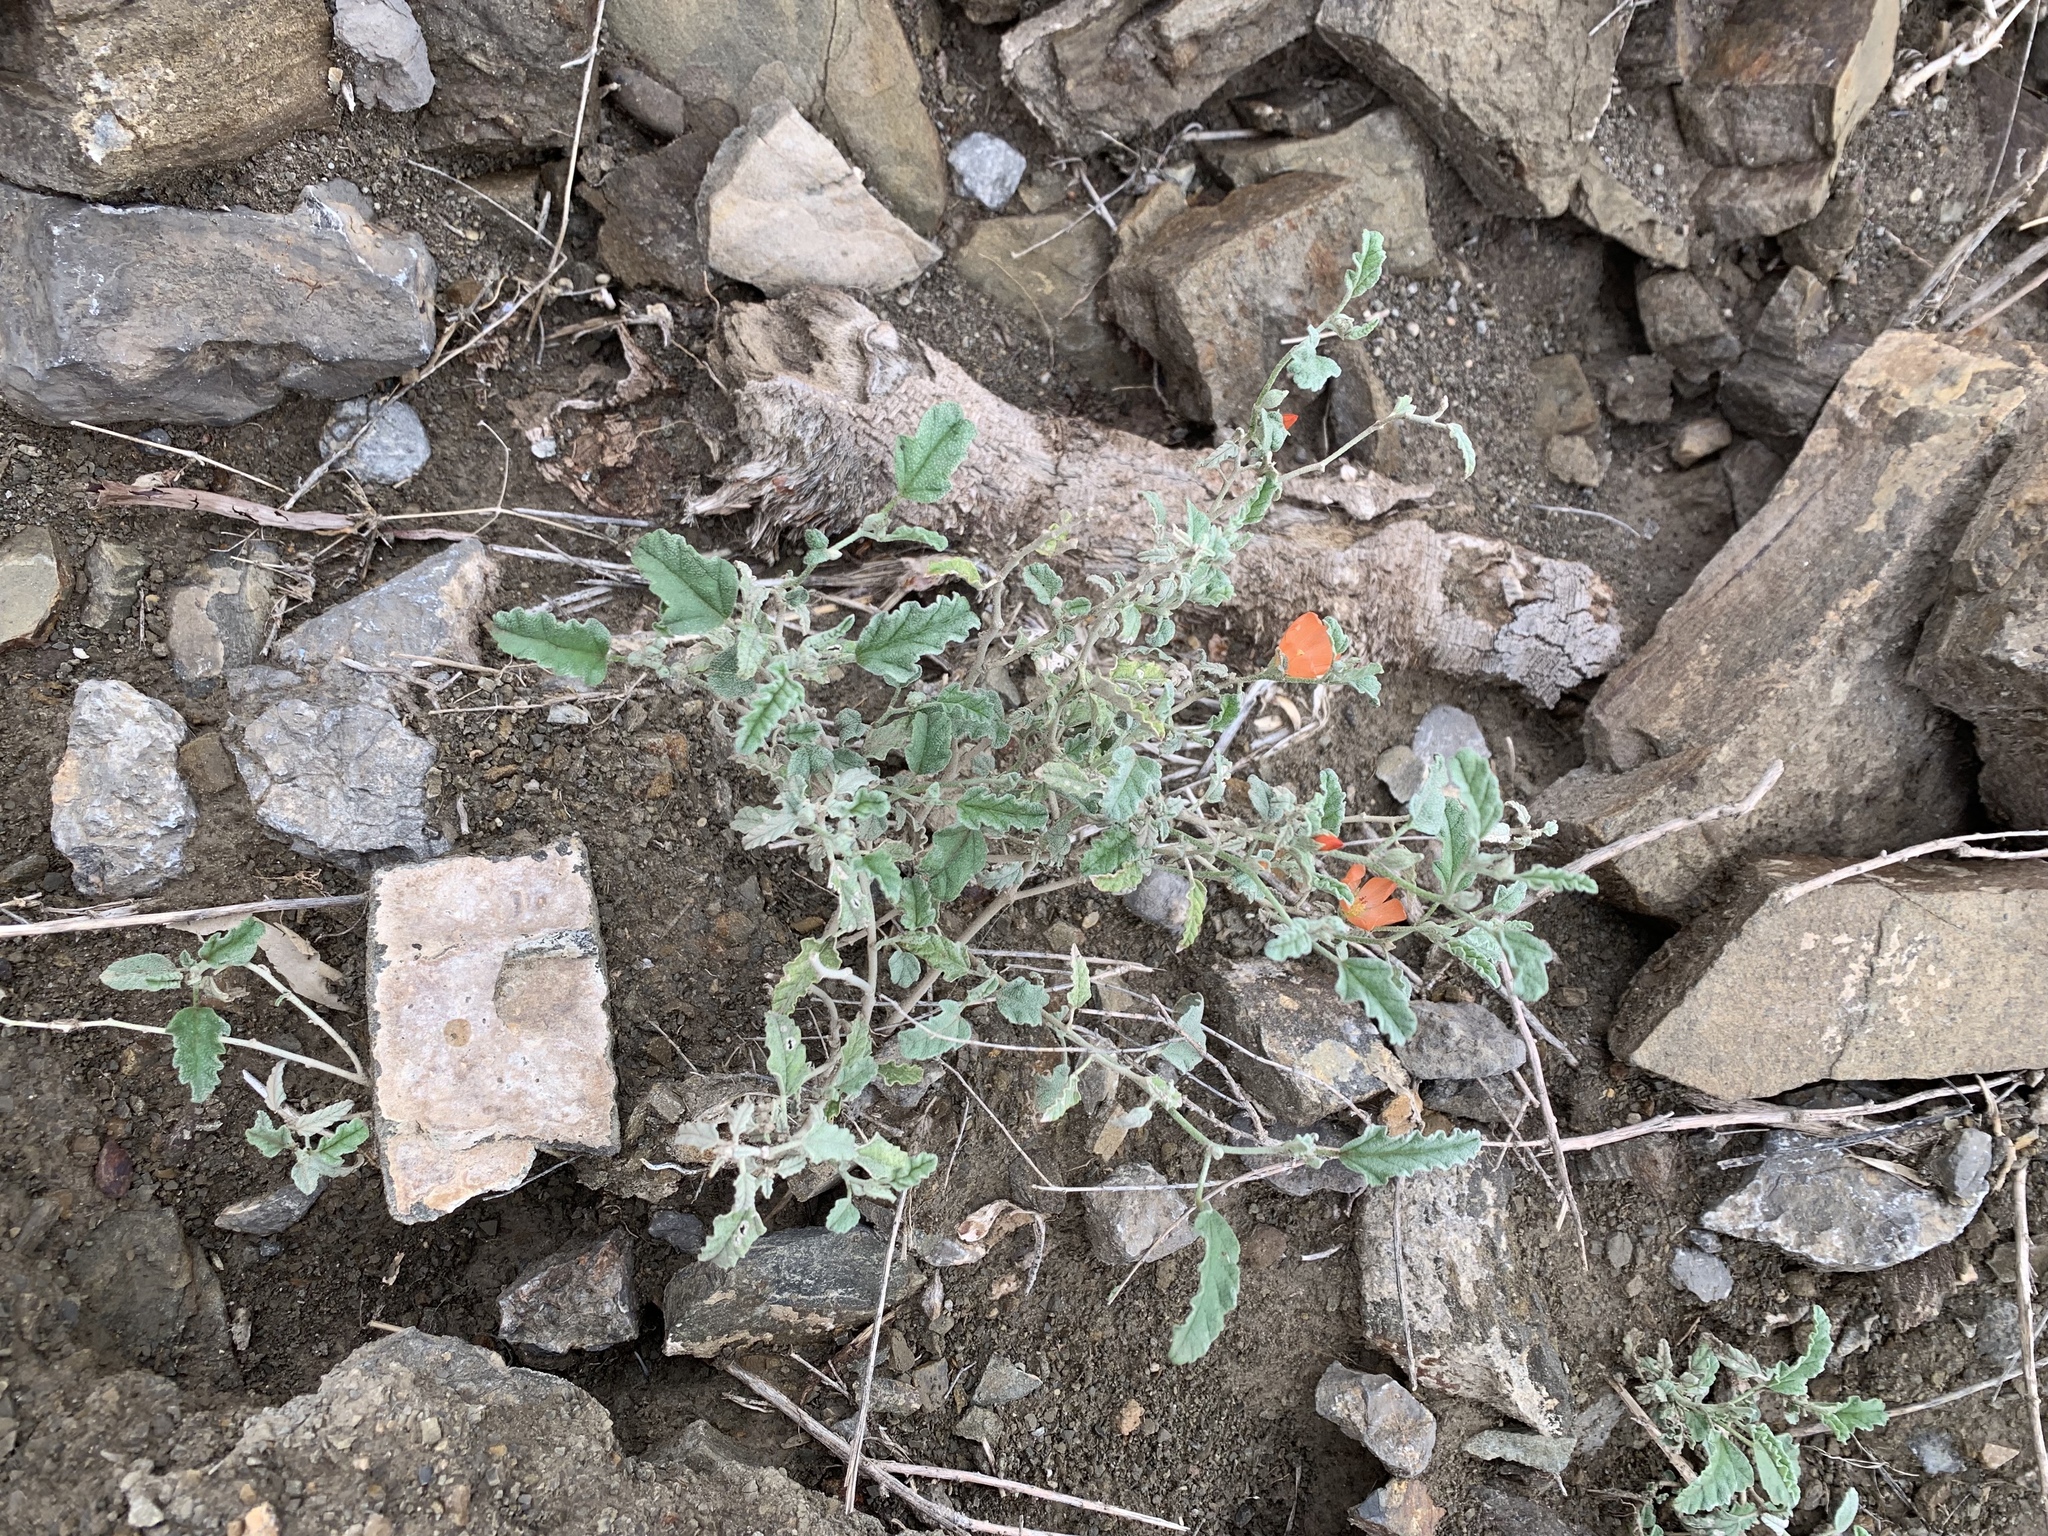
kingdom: Plantae
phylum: Tracheophyta
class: Magnoliopsida
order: Malvales
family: Malvaceae
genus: Sphaeralcea
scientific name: Sphaeralcea hastulata
